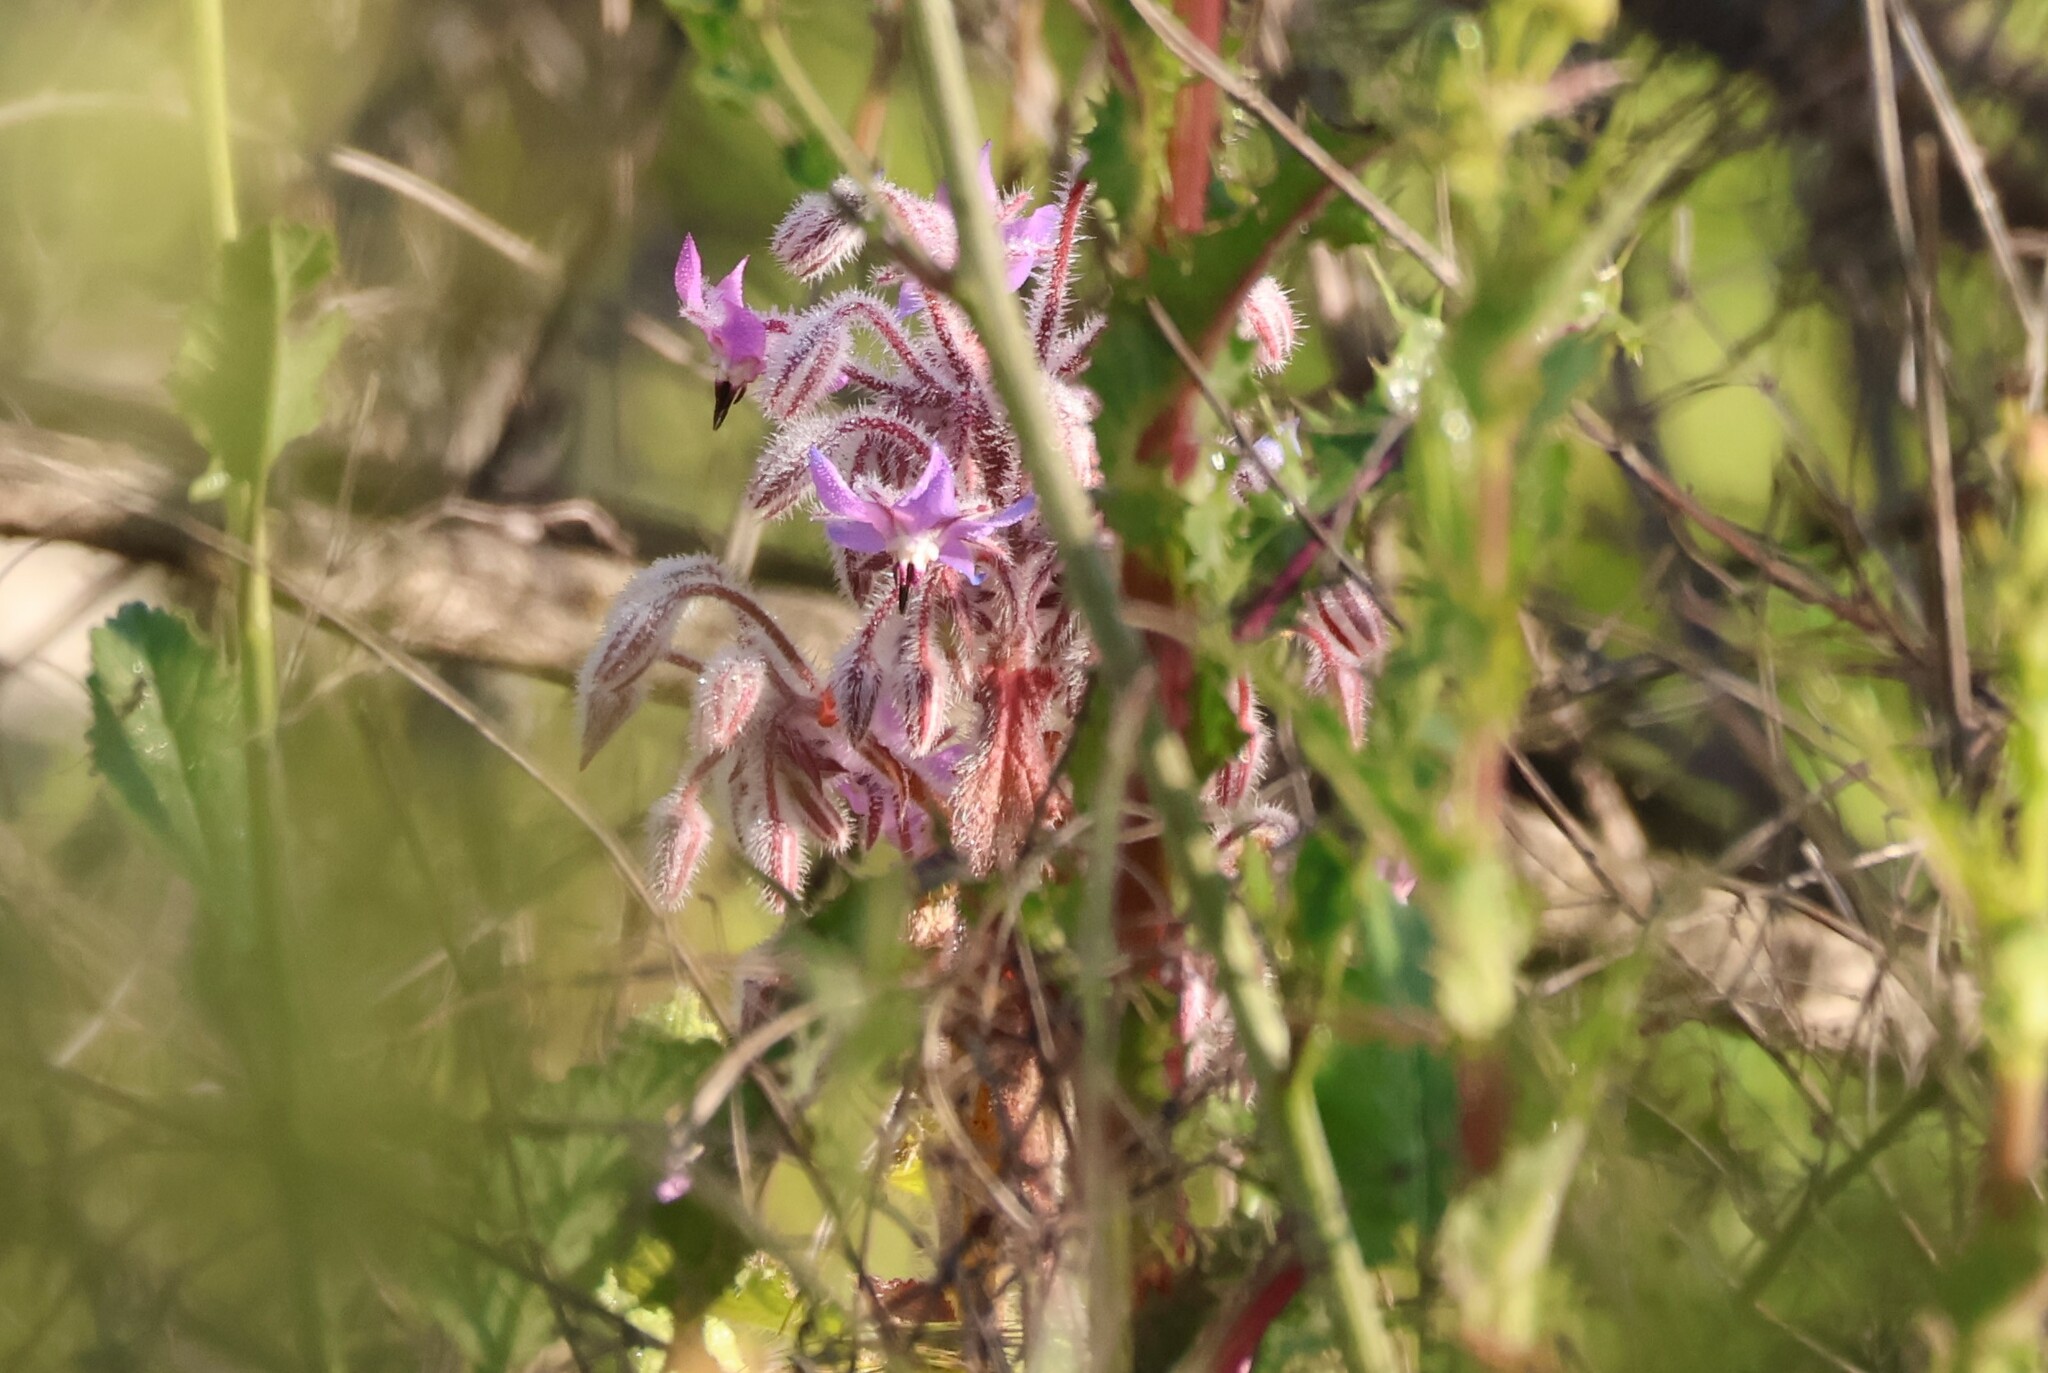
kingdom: Plantae
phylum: Tracheophyta
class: Magnoliopsida
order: Boraginales
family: Boraginaceae
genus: Borago
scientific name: Borago officinalis
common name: Borage
